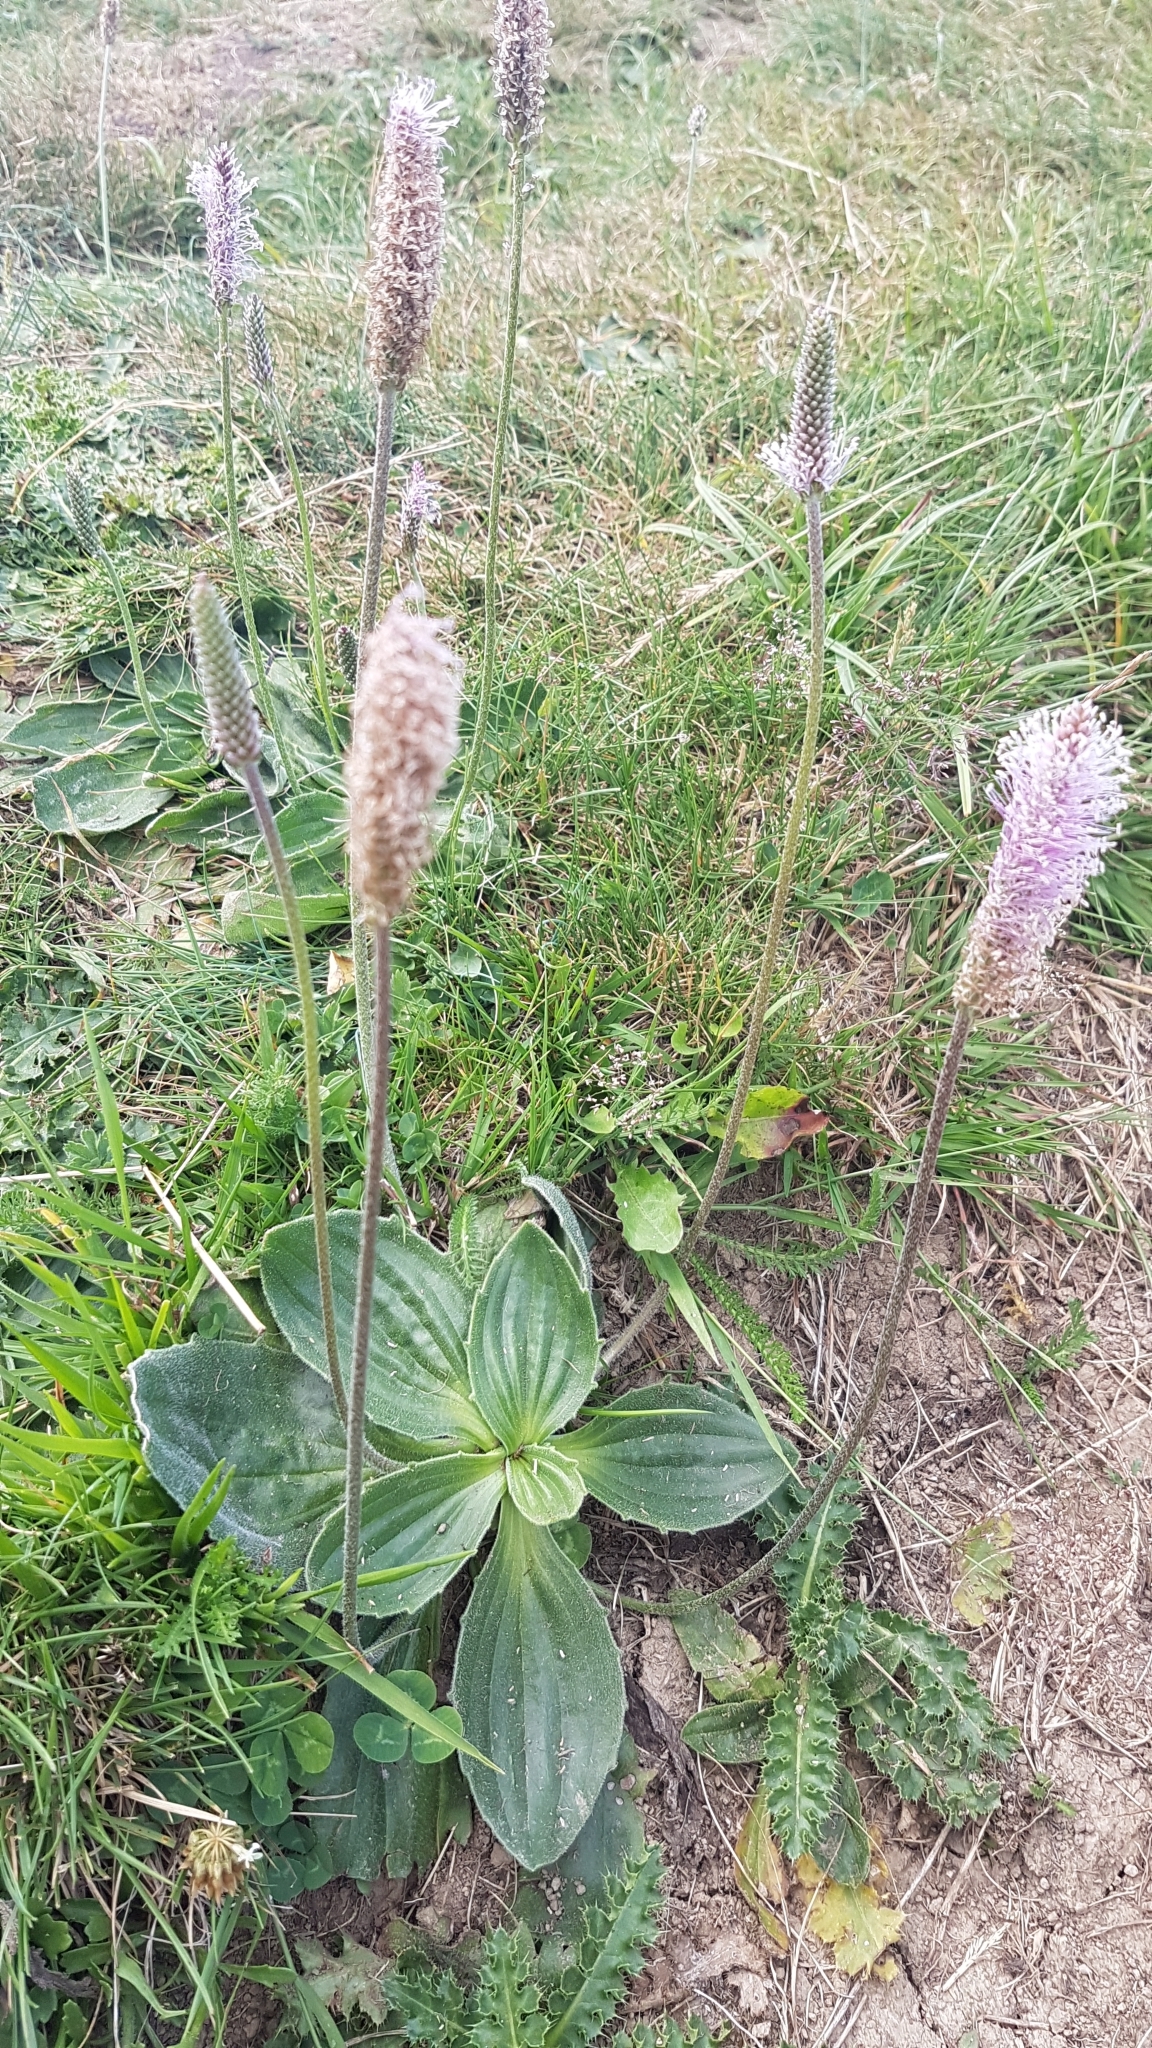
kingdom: Plantae
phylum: Tracheophyta
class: Magnoliopsida
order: Lamiales
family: Plantaginaceae
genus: Plantago
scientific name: Plantago media
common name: Hoary plantain
